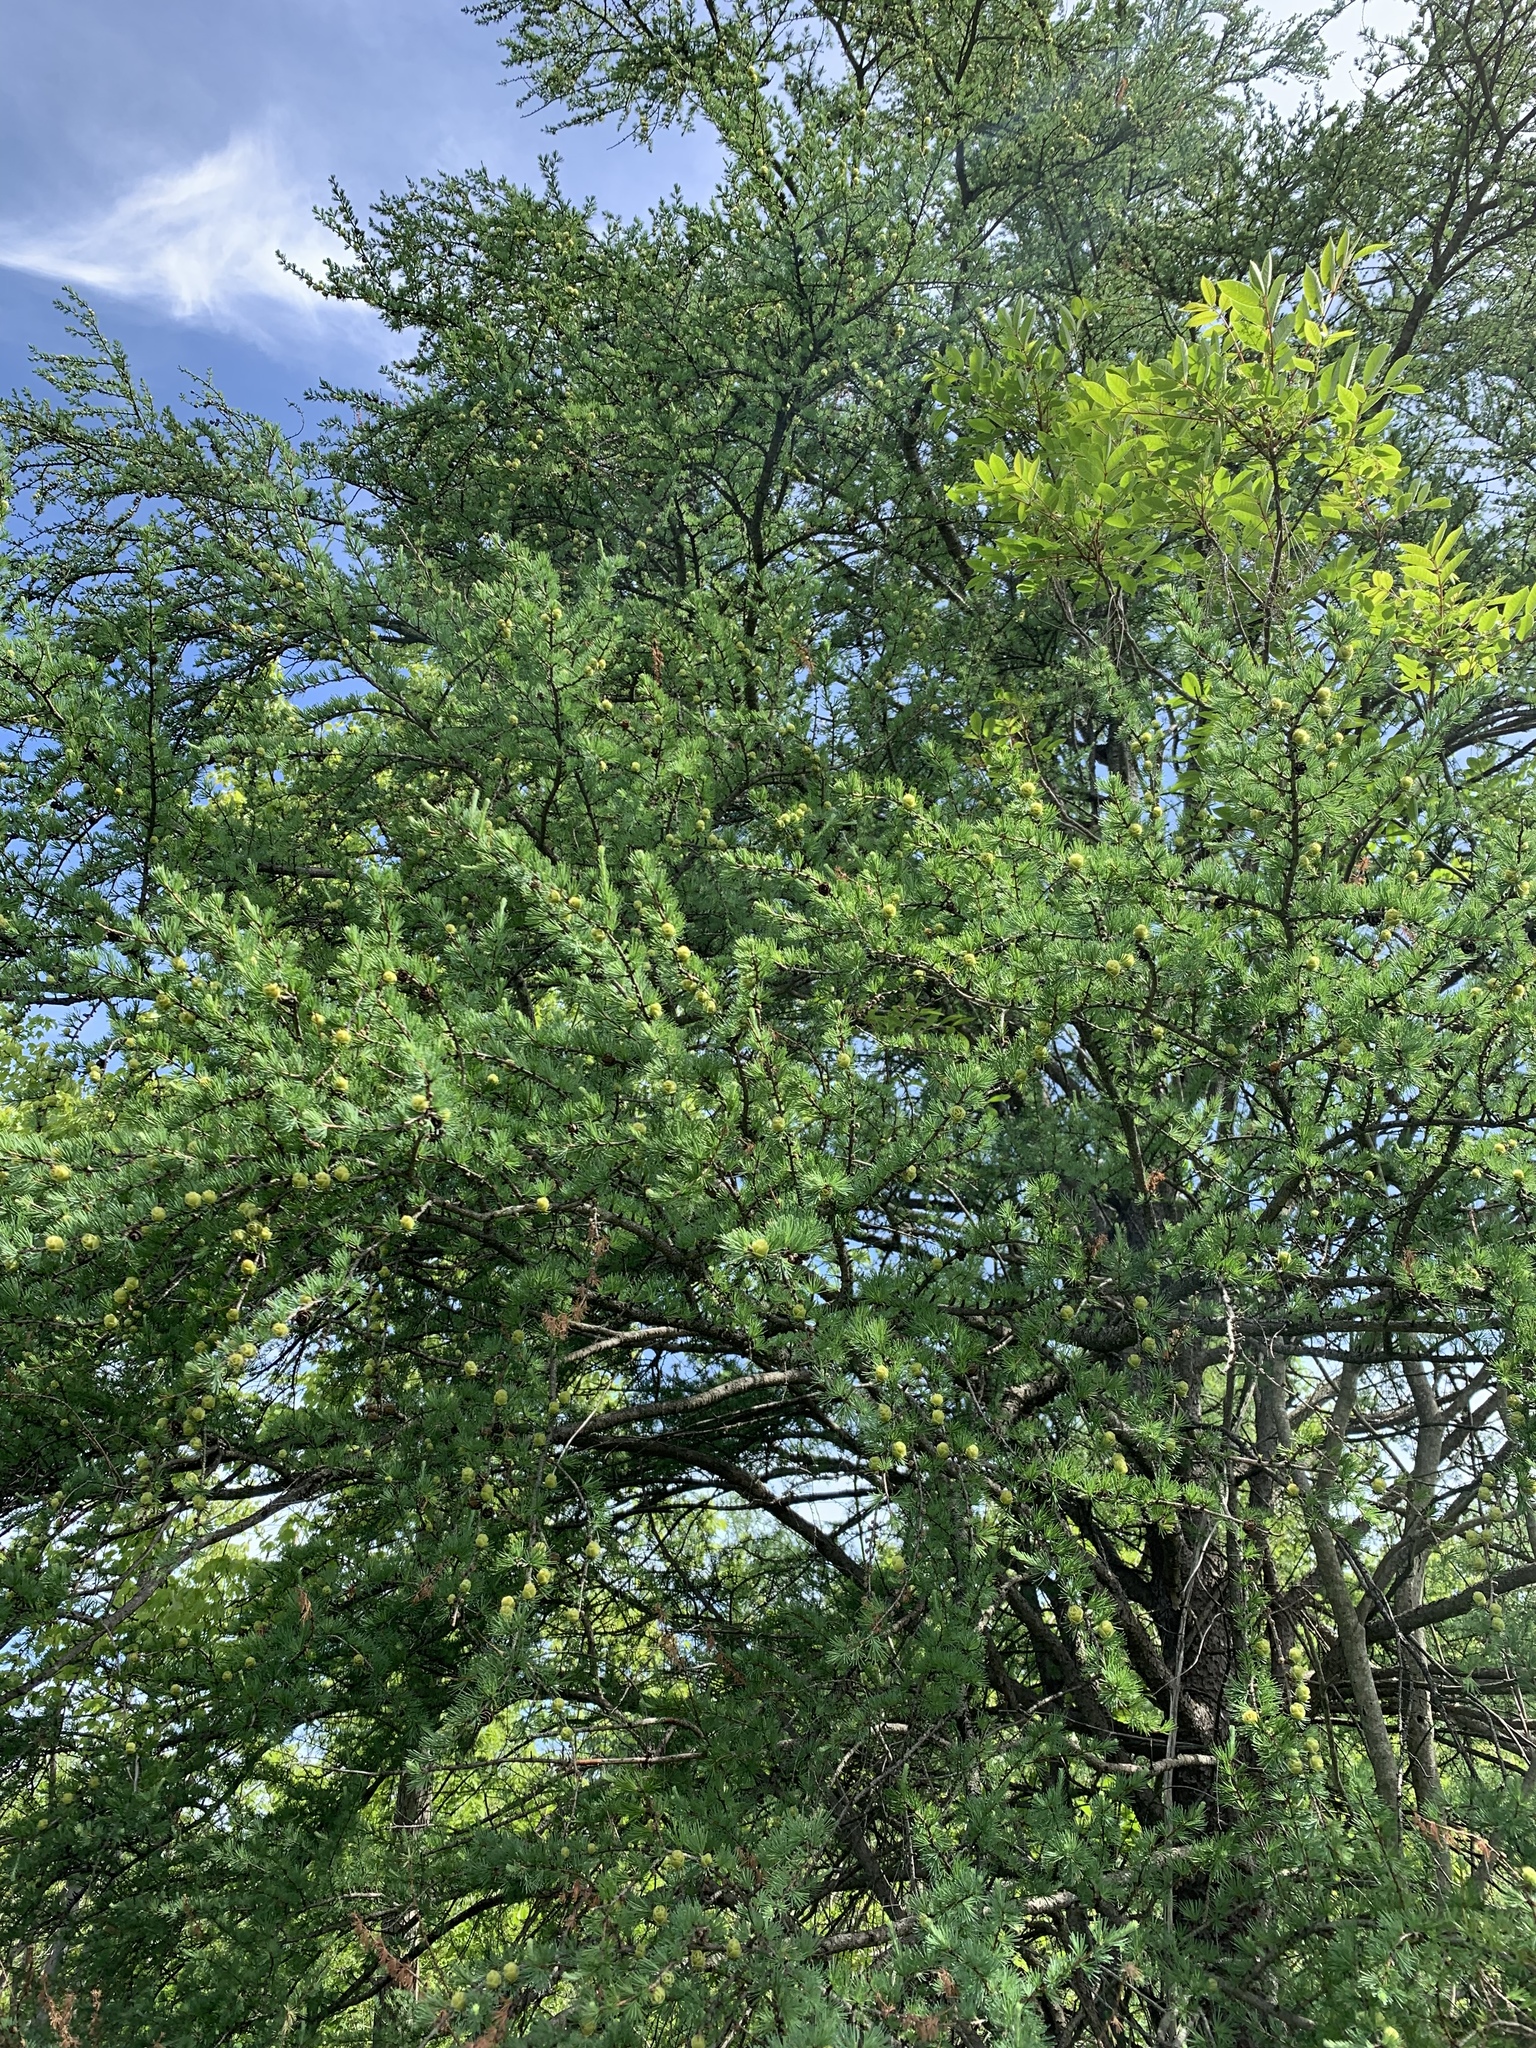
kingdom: Plantae
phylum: Tracheophyta
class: Pinopsida
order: Pinales
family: Pinaceae
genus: Larix
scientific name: Larix laricina
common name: American larch
